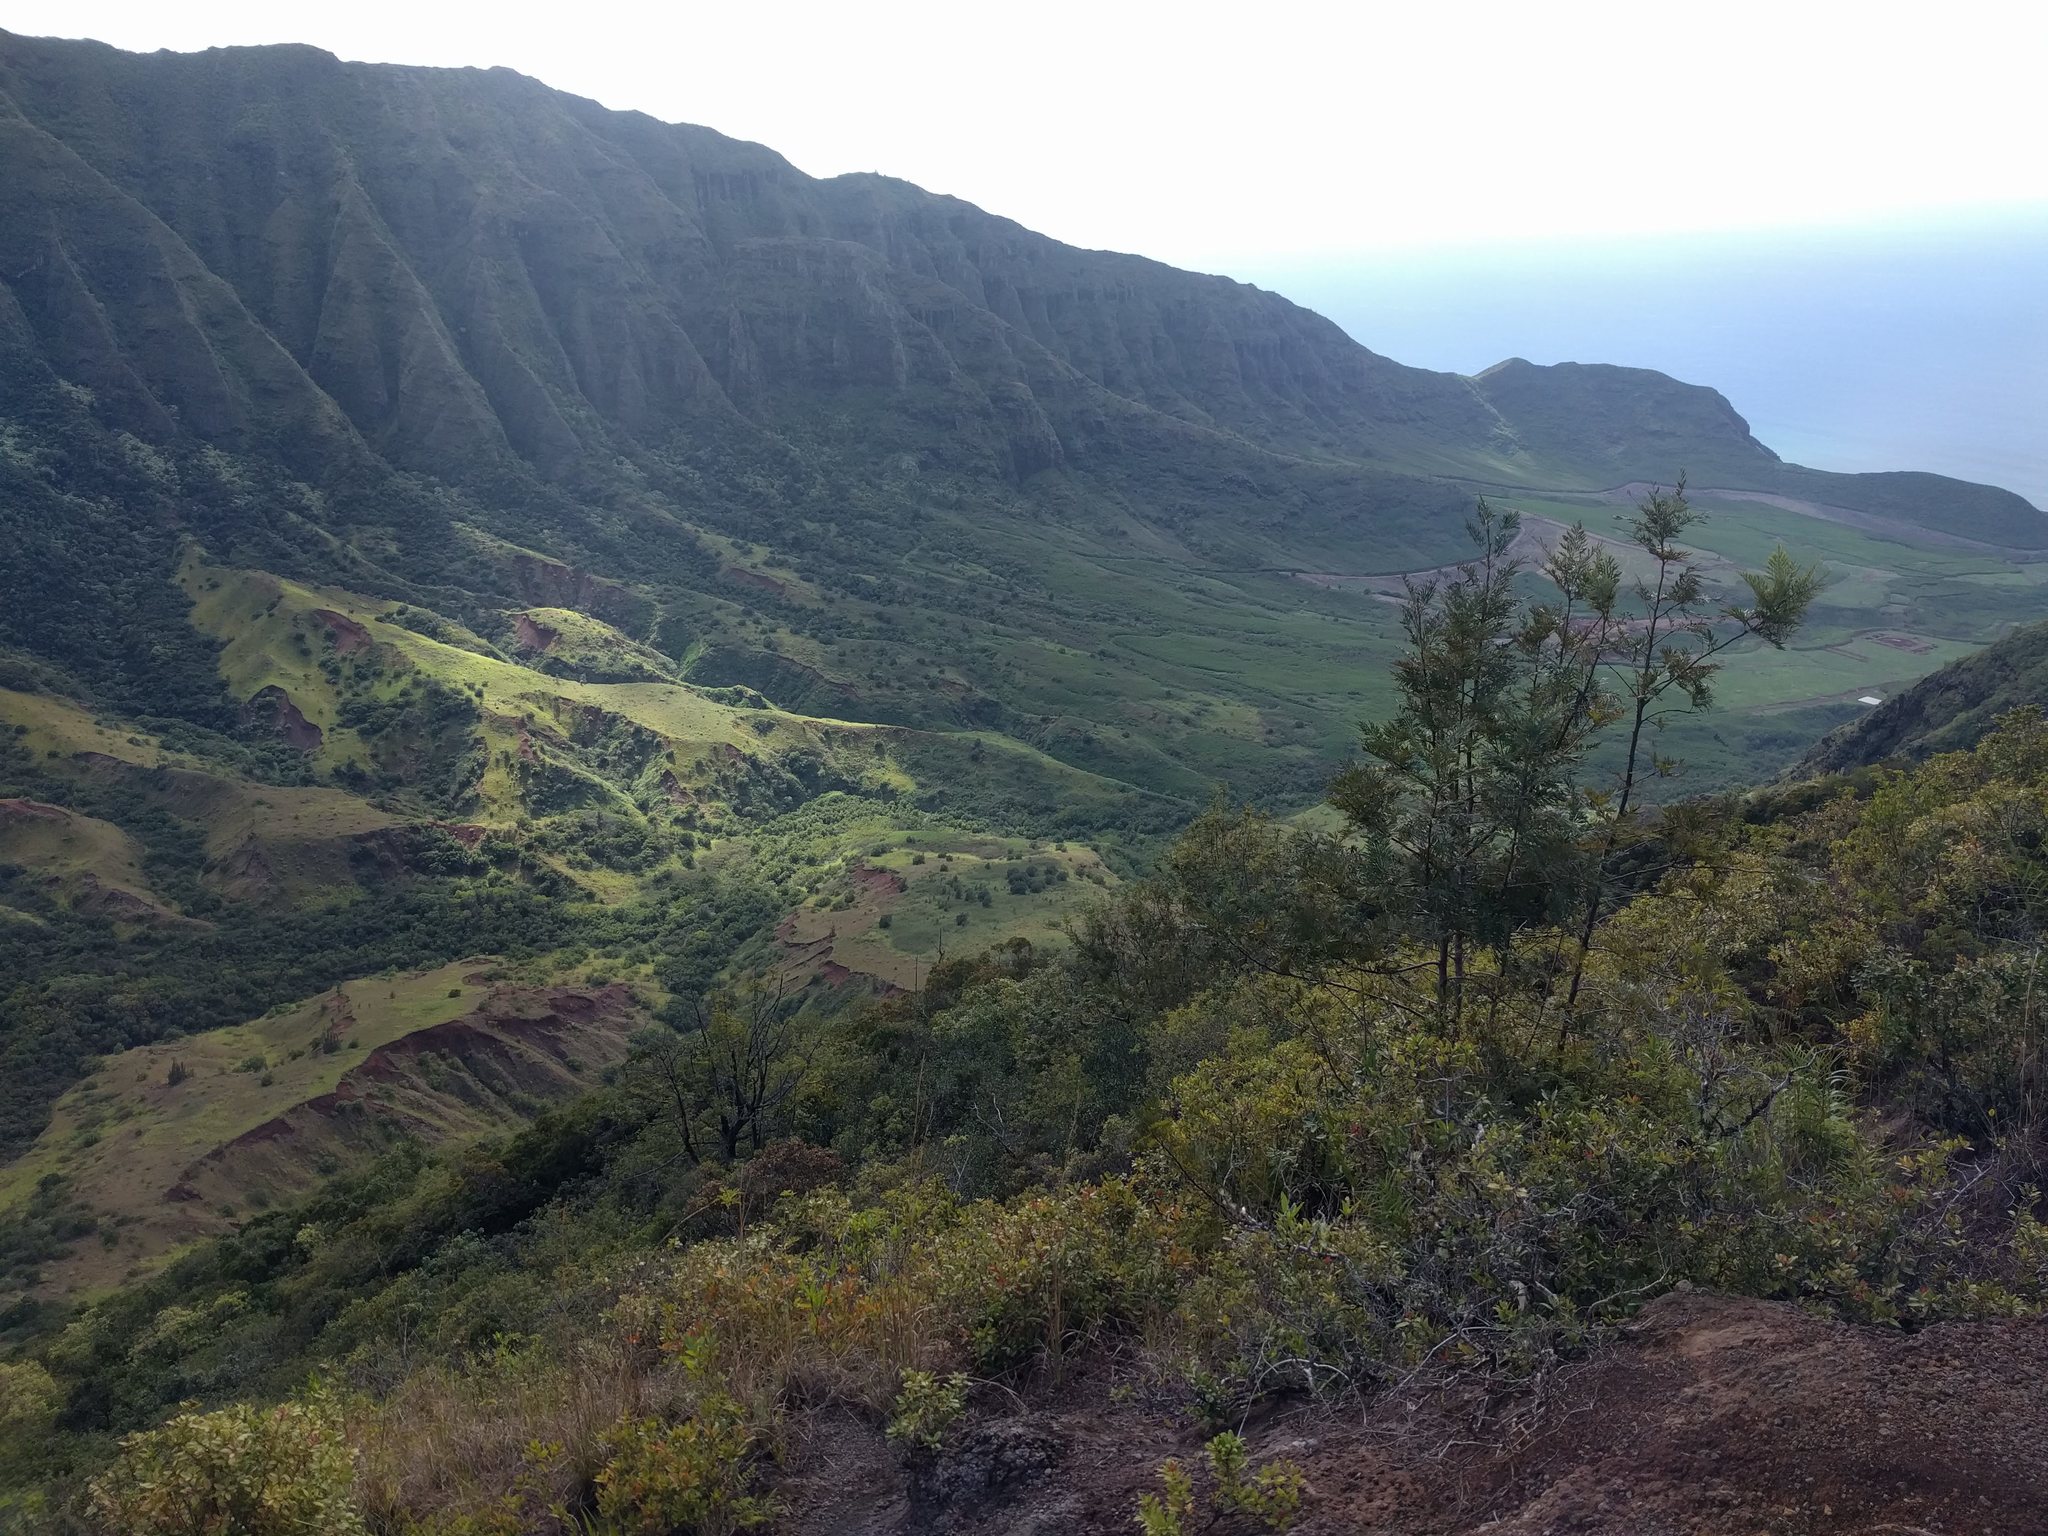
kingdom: Plantae
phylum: Tracheophyta
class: Magnoliopsida
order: Proteales
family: Proteaceae
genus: Grevillea
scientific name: Grevillea robusta
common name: Silkoak
